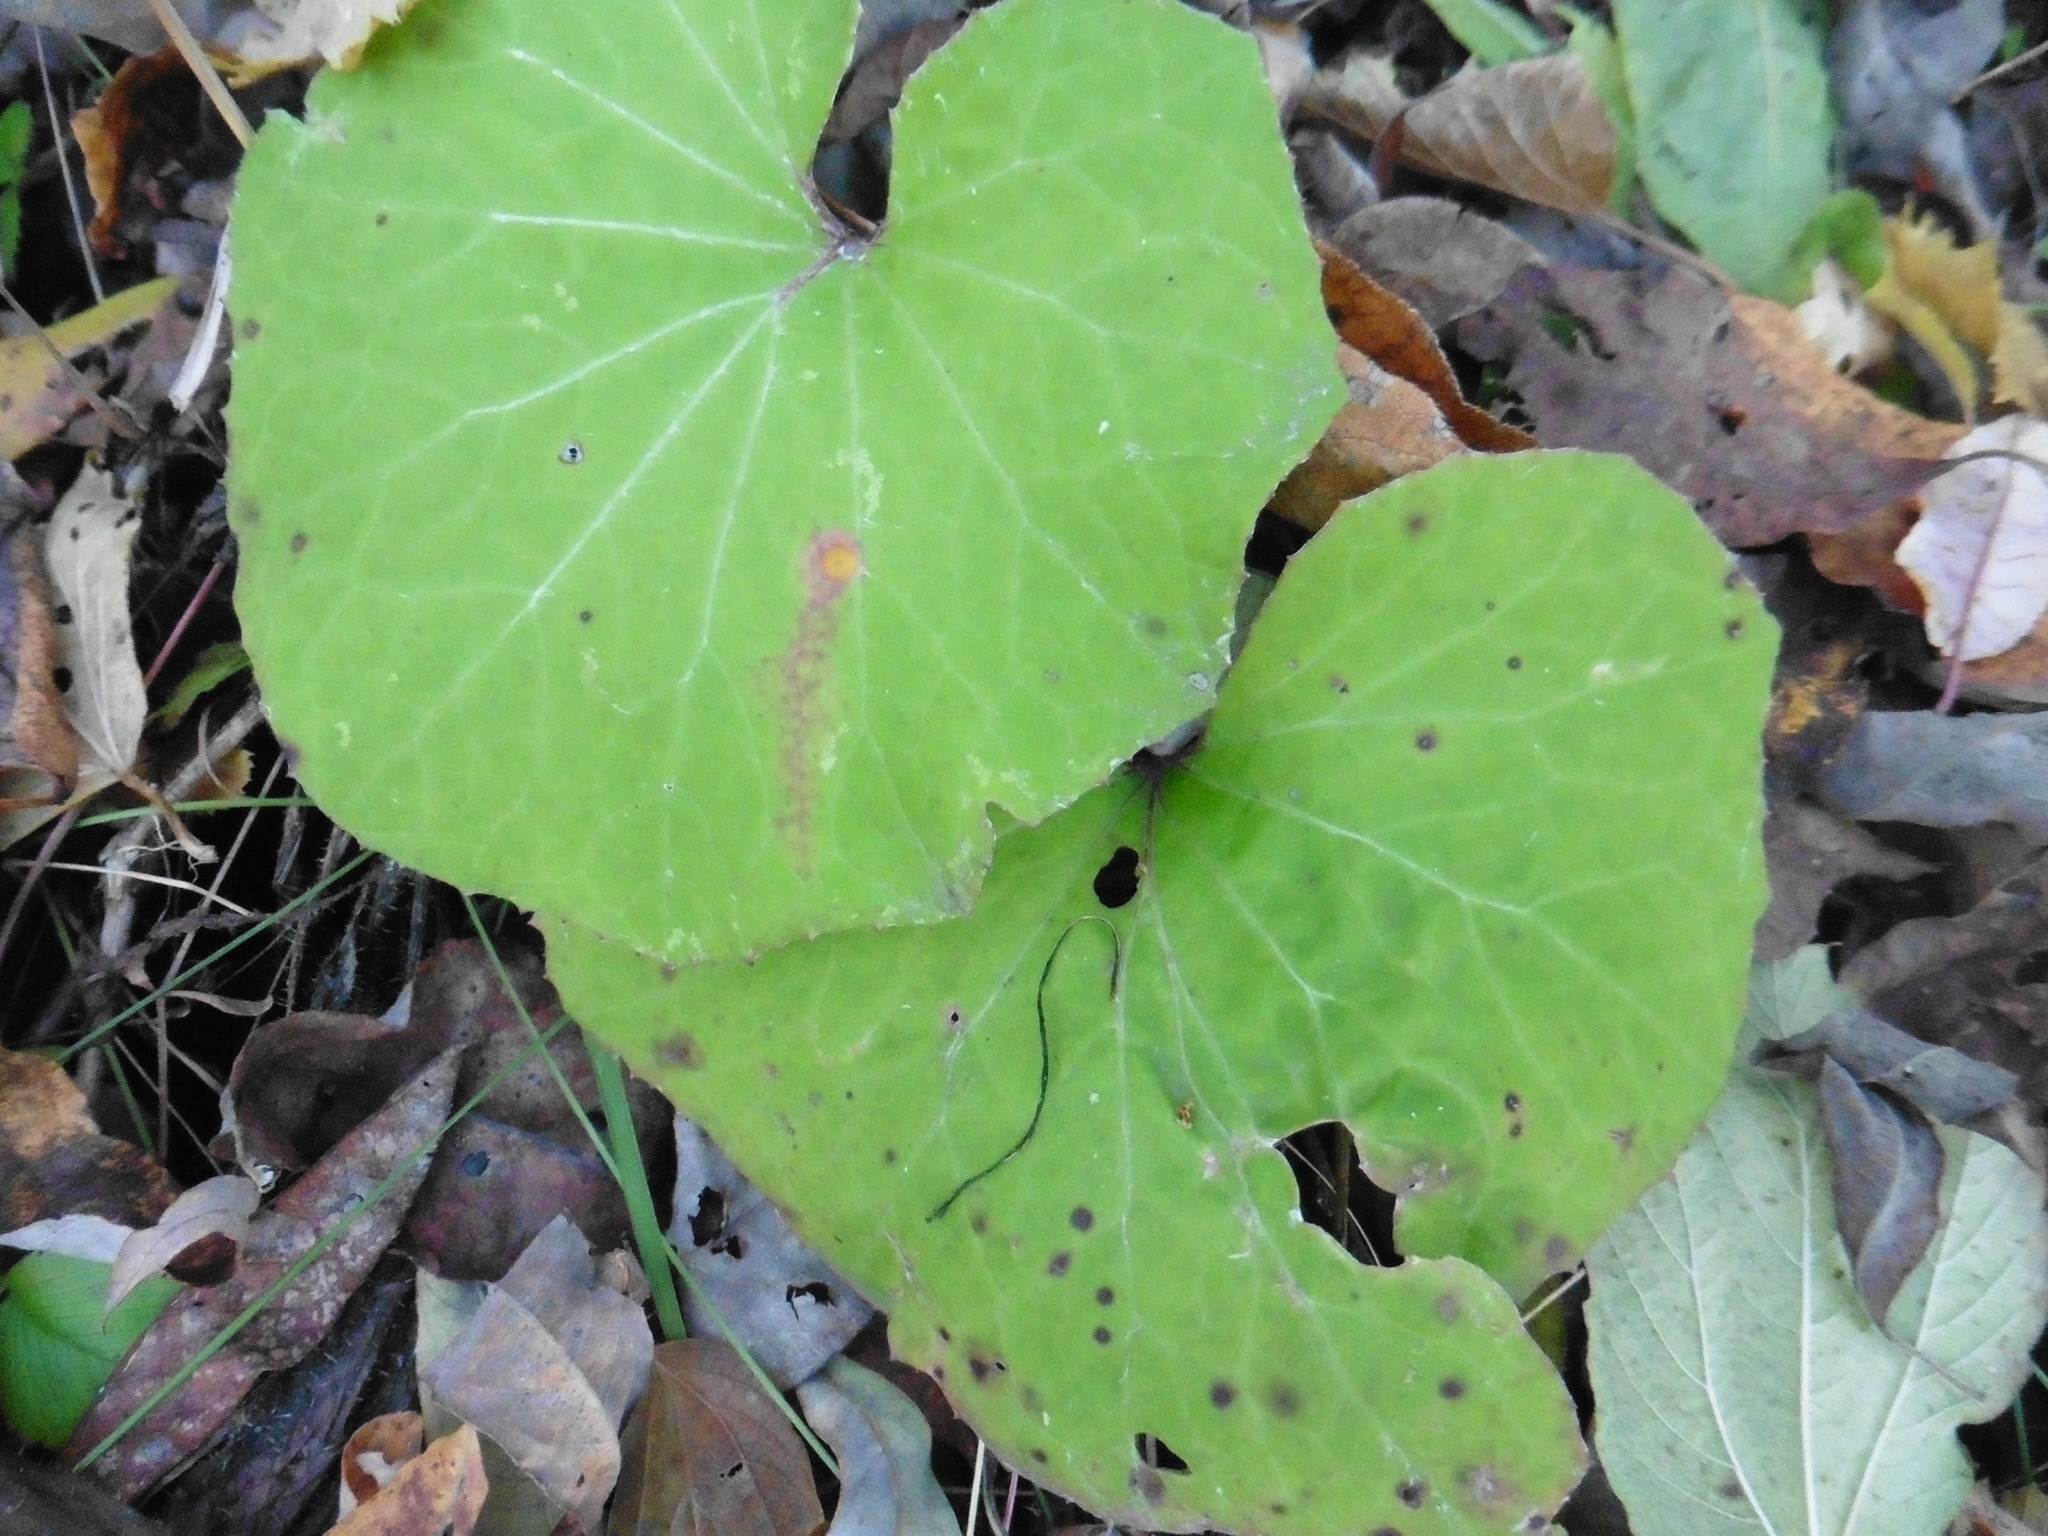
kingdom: Plantae
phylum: Tracheophyta
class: Magnoliopsida
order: Asterales
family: Asteraceae
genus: Tussilago
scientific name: Tussilago farfara
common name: Coltsfoot
